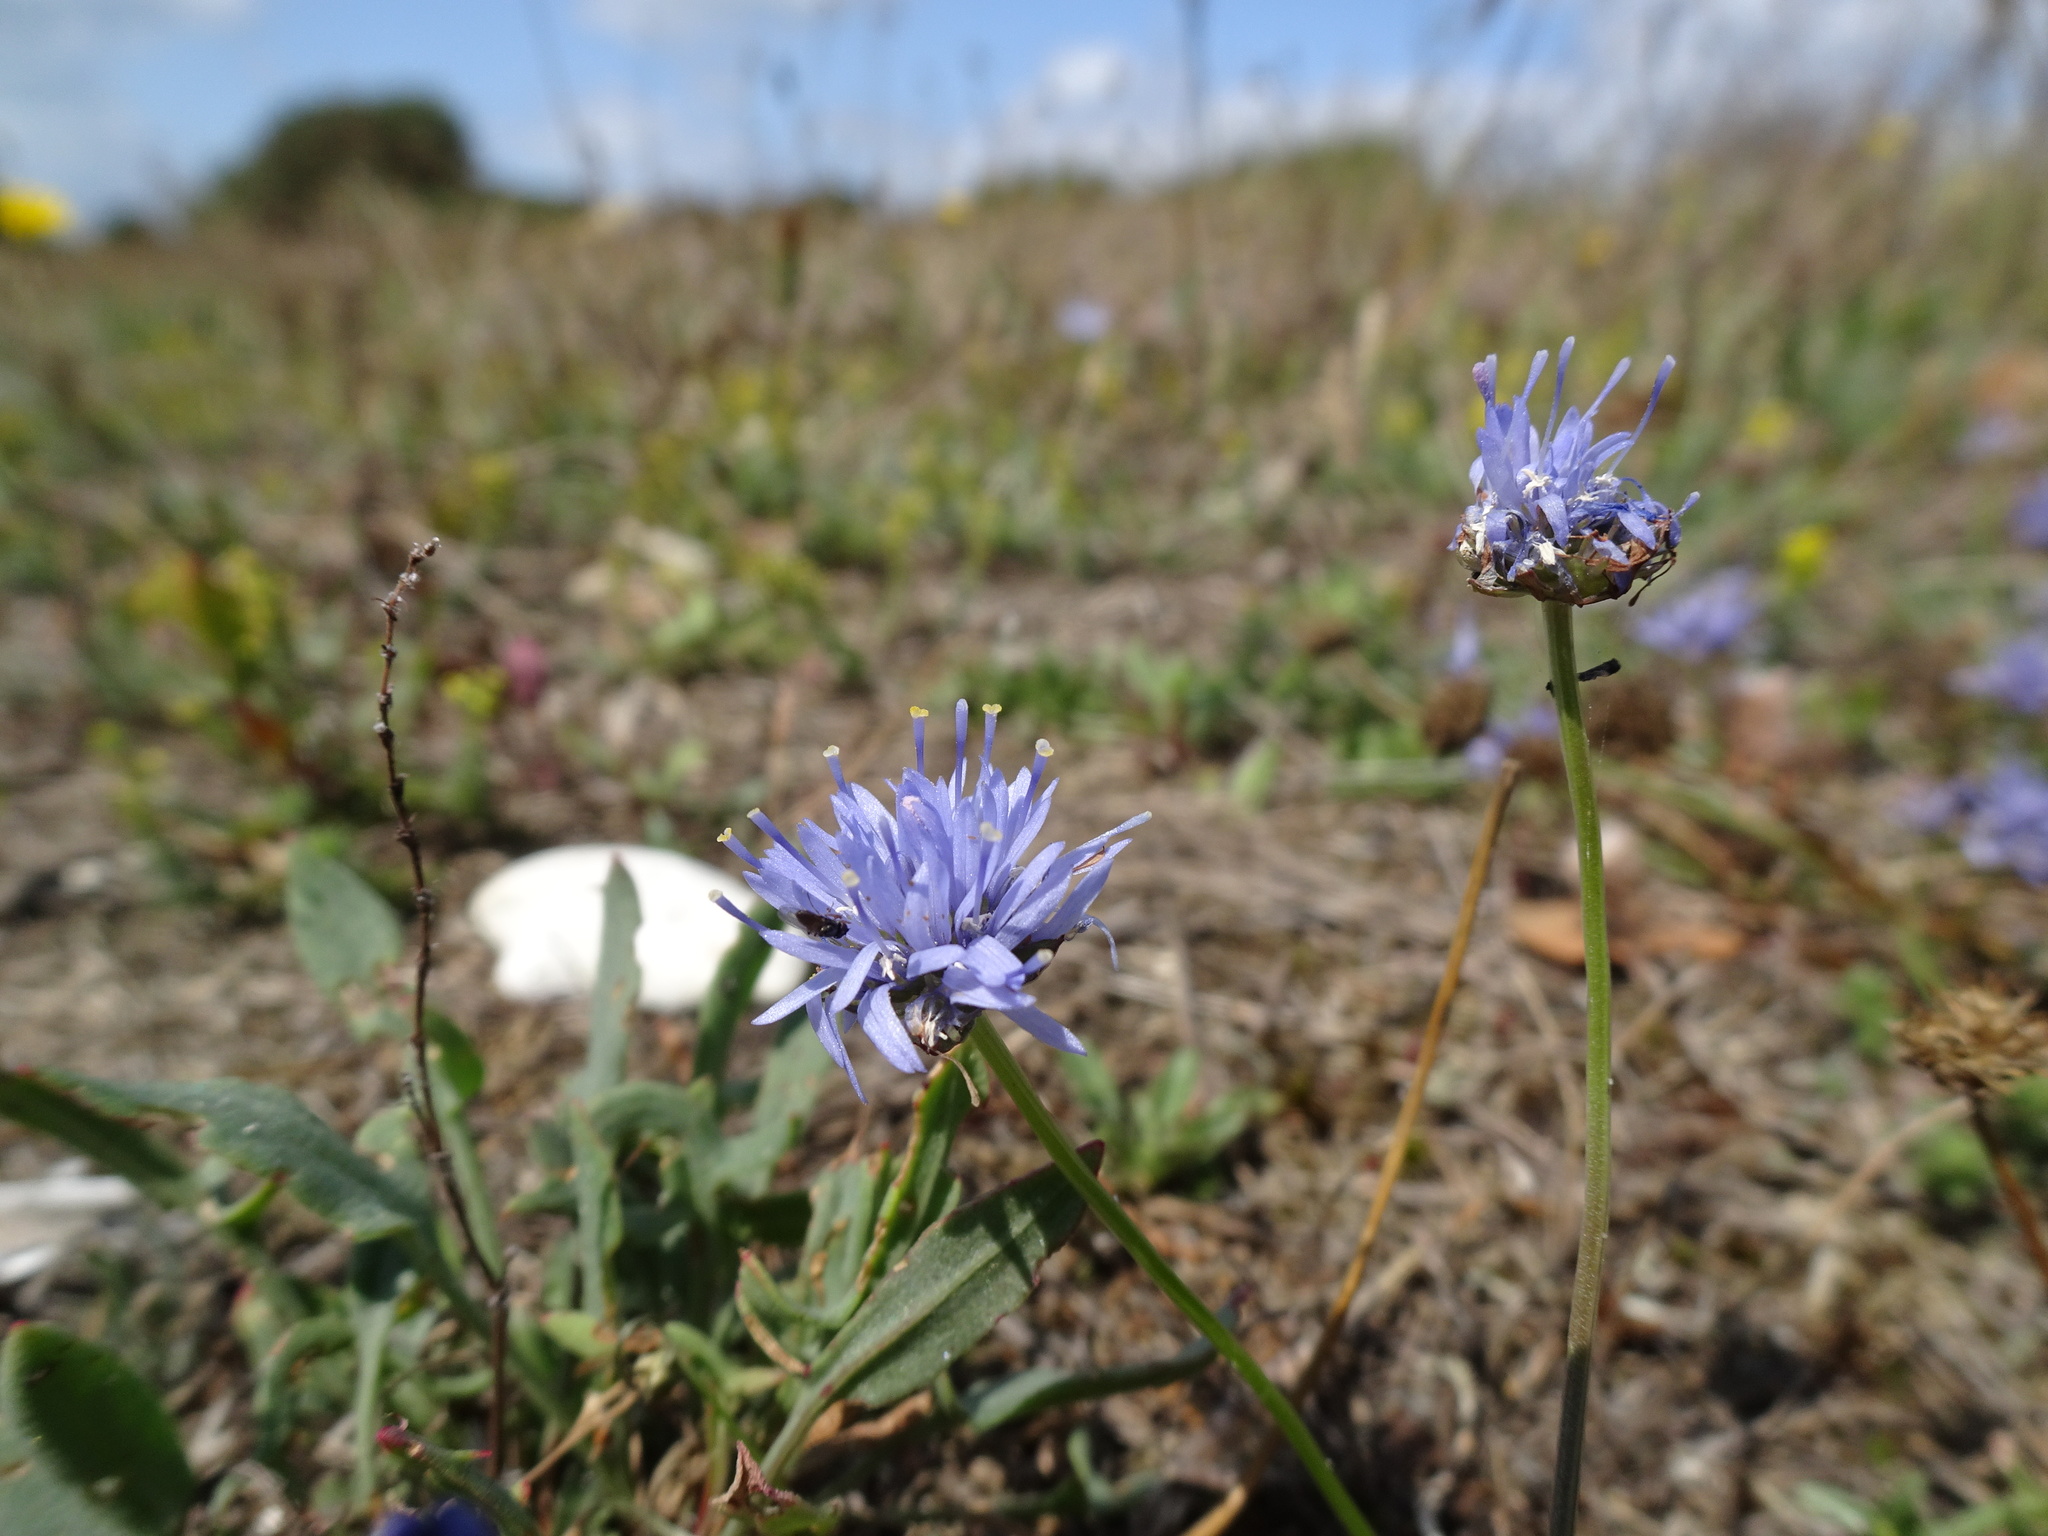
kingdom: Plantae
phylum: Tracheophyta
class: Magnoliopsida
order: Asterales
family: Campanulaceae
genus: Jasione
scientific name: Jasione montana
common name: Sheep's-bit
